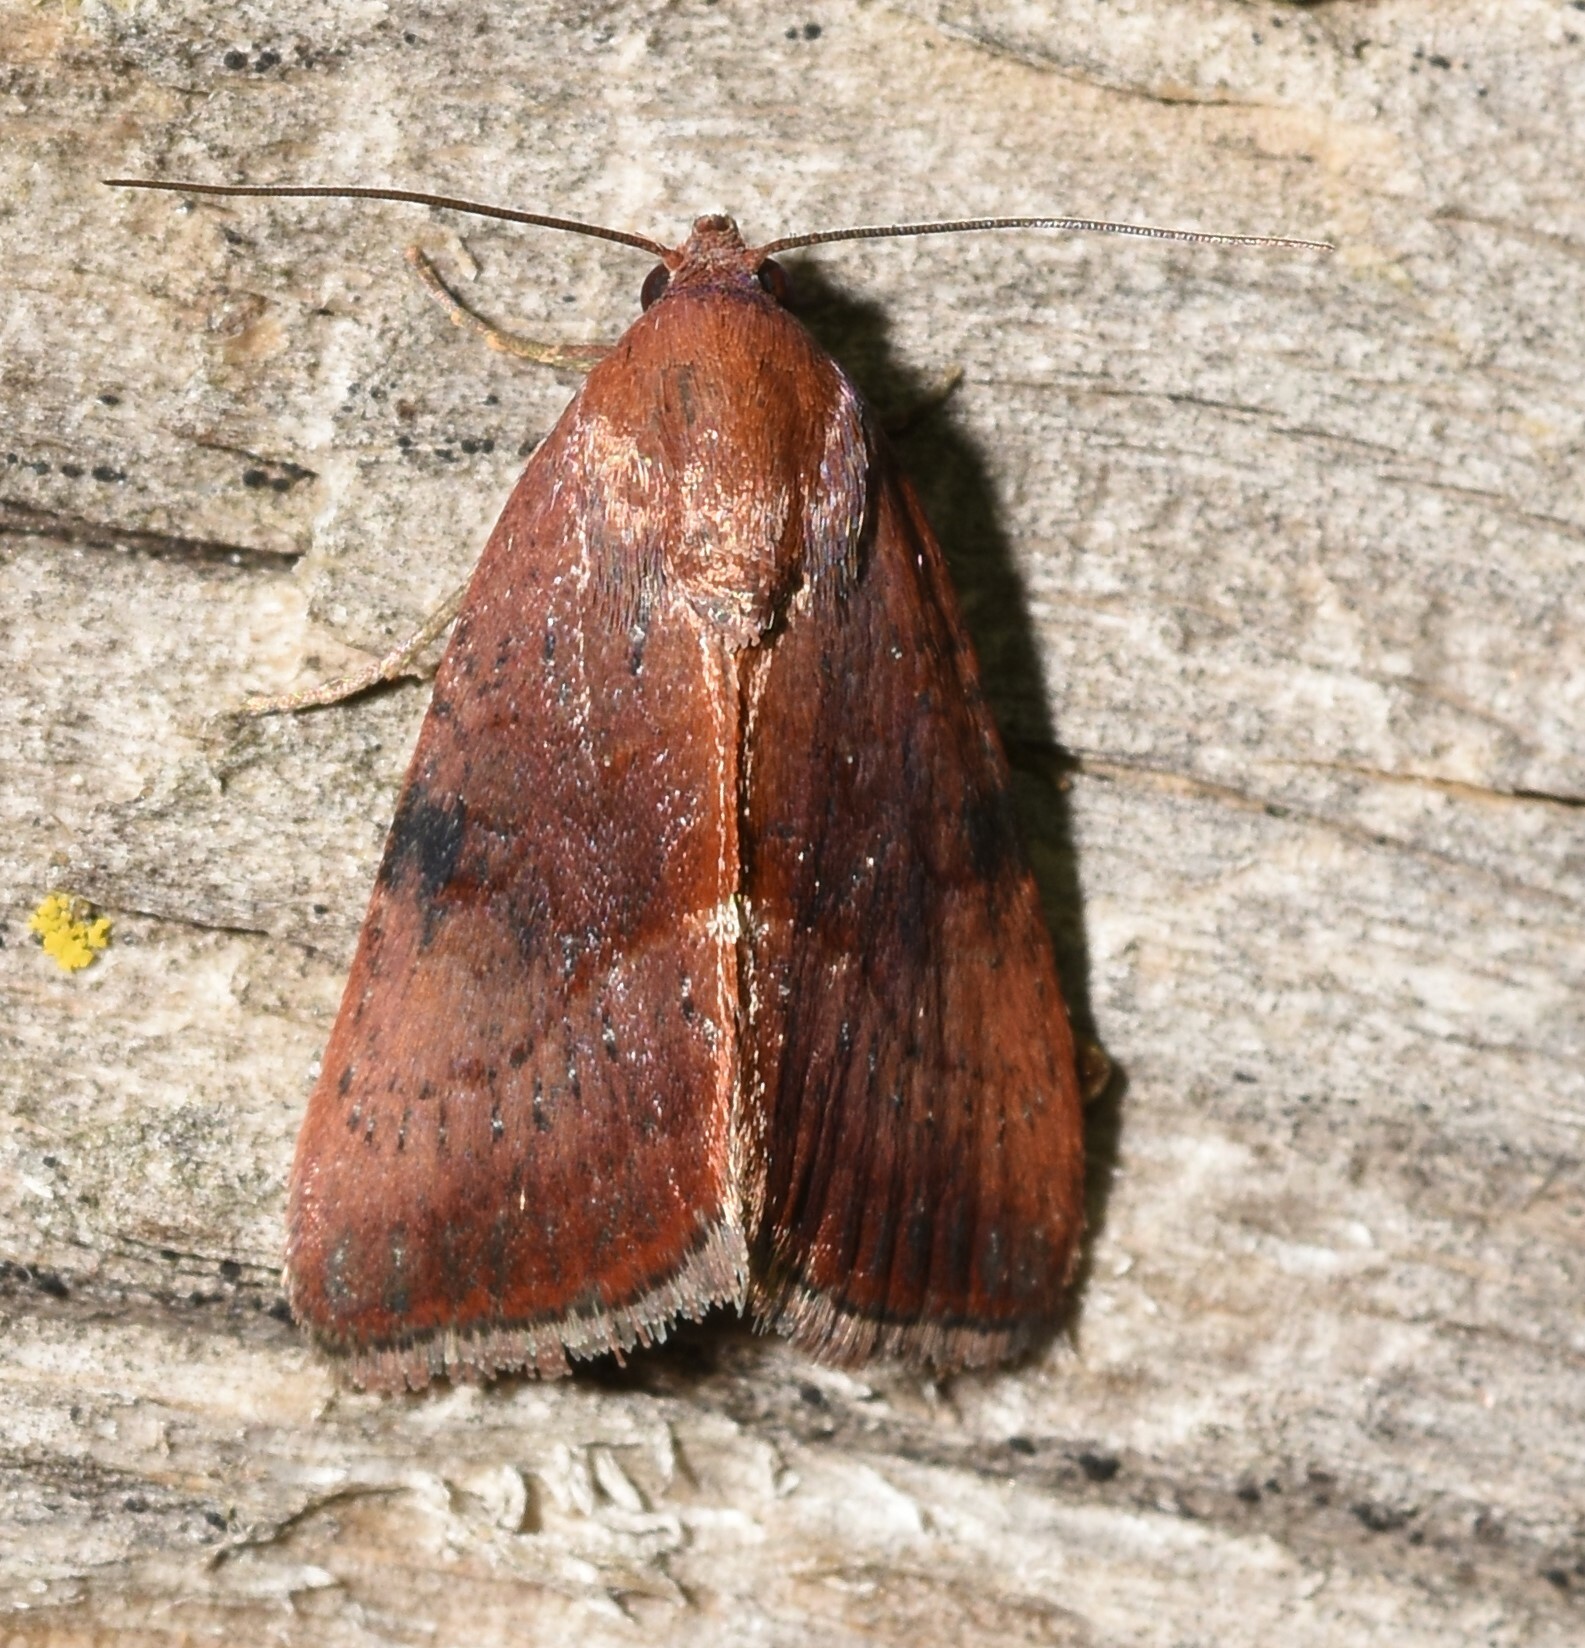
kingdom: Animalia
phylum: Arthropoda
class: Insecta
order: Lepidoptera
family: Noctuidae
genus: Galgula
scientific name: Galgula partita
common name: Wedgeling
